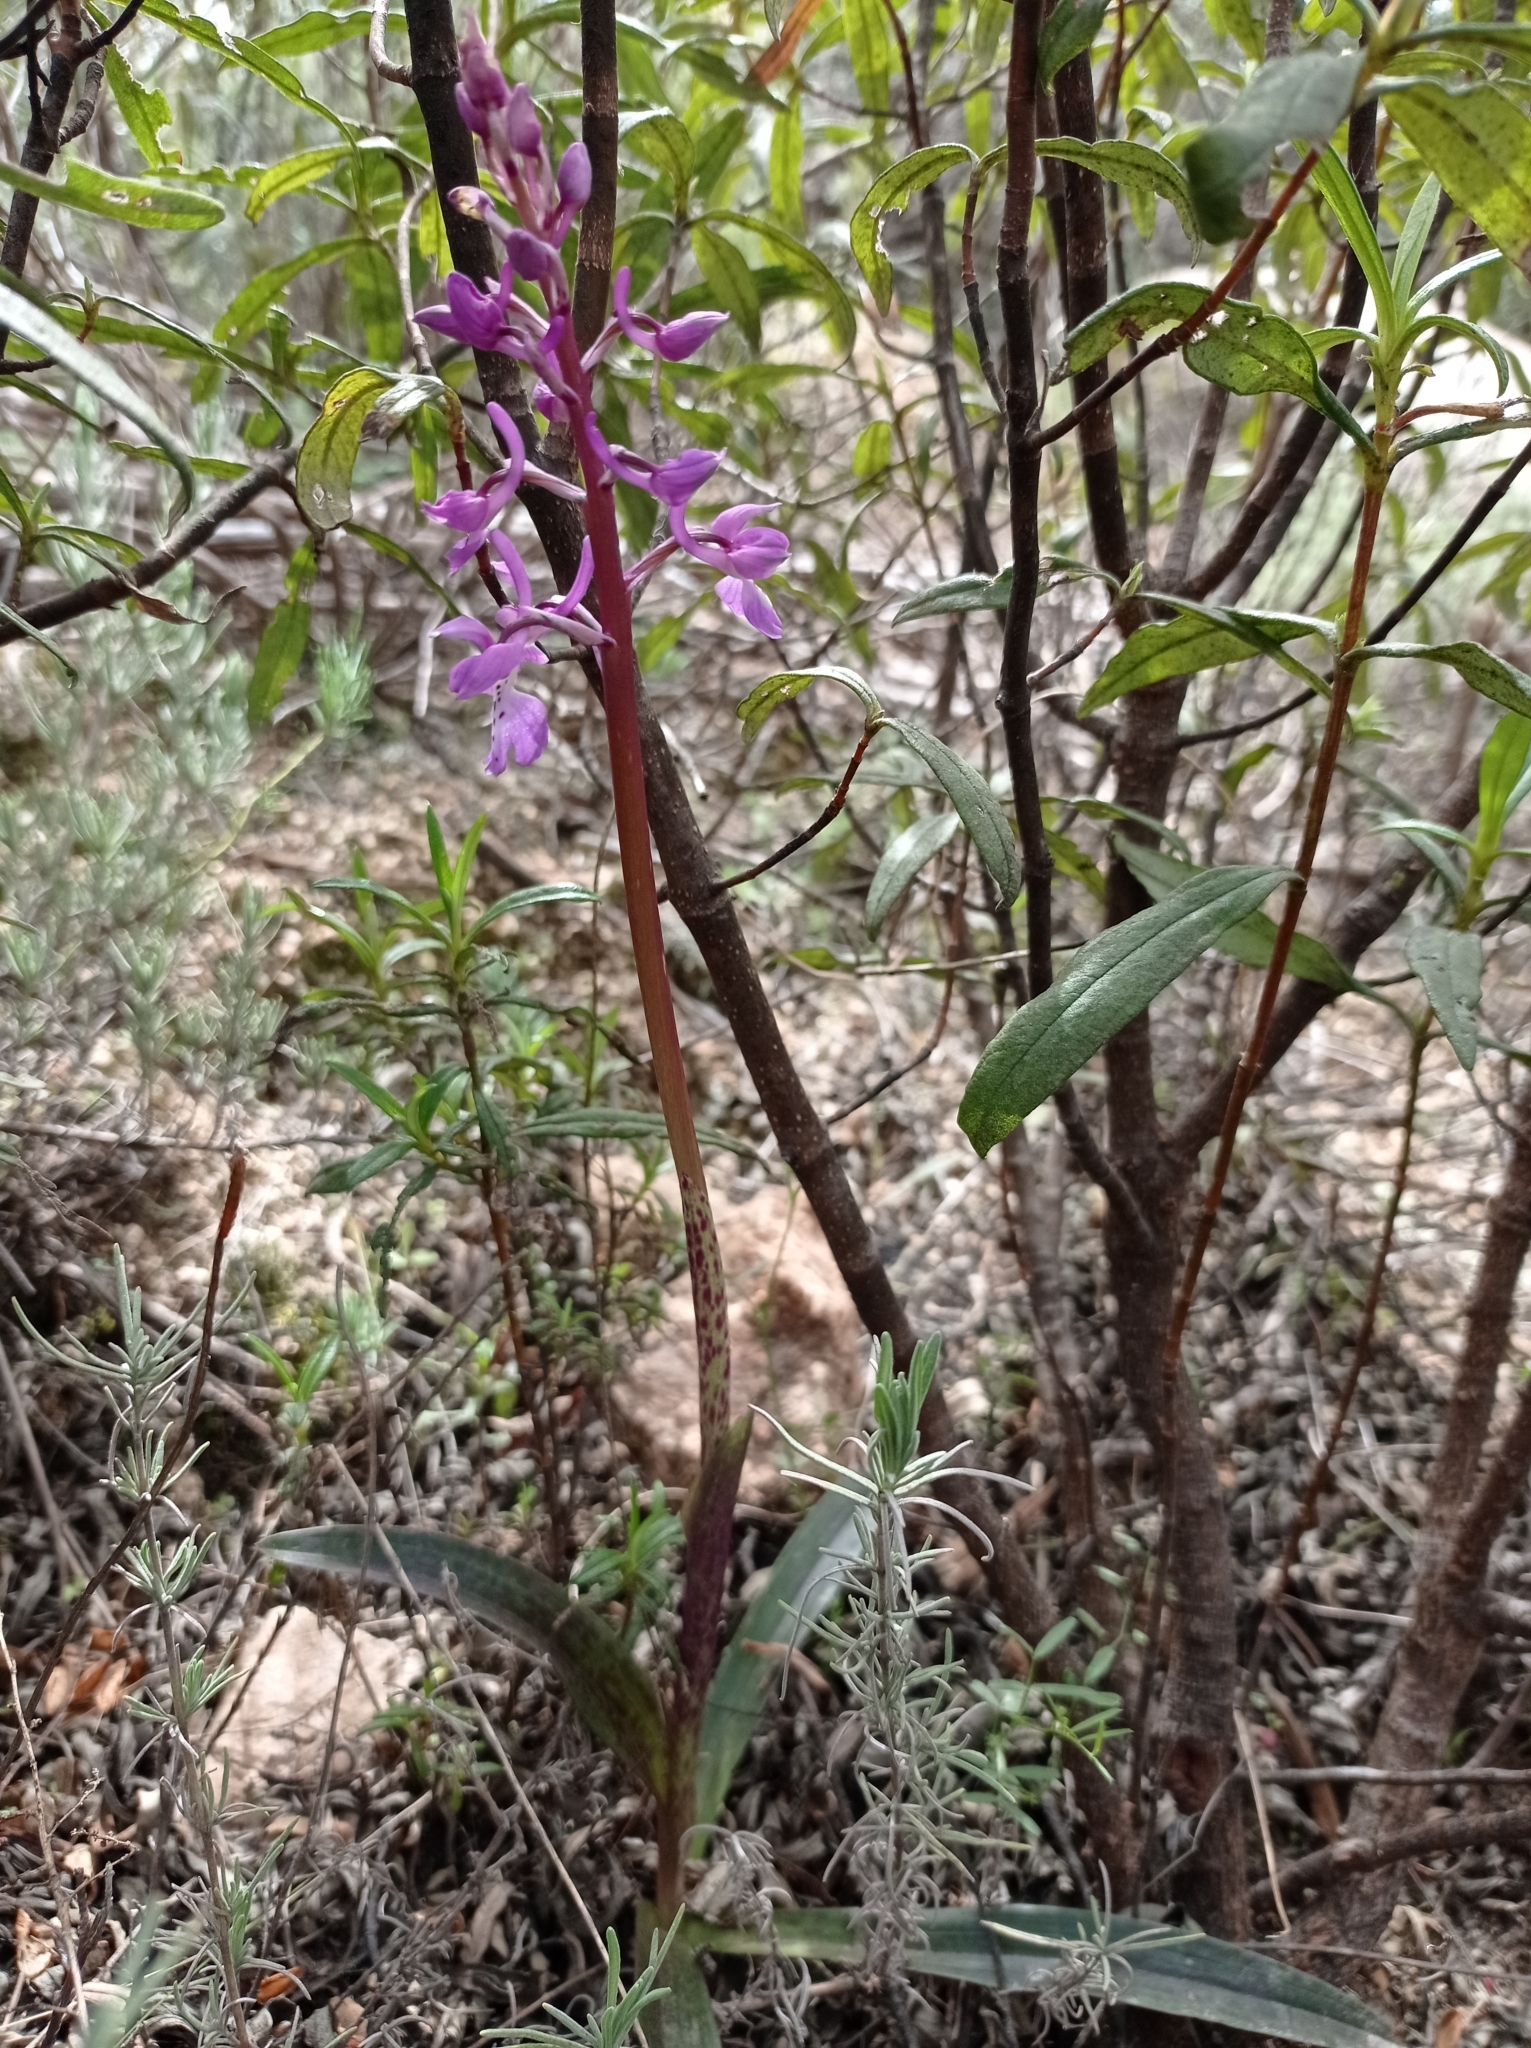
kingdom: Plantae
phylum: Tracheophyta
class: Liliopsida
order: Asparagales
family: Orchidaceae
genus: Orchis
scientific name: Orchis mascula
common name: Early-purple orchid
